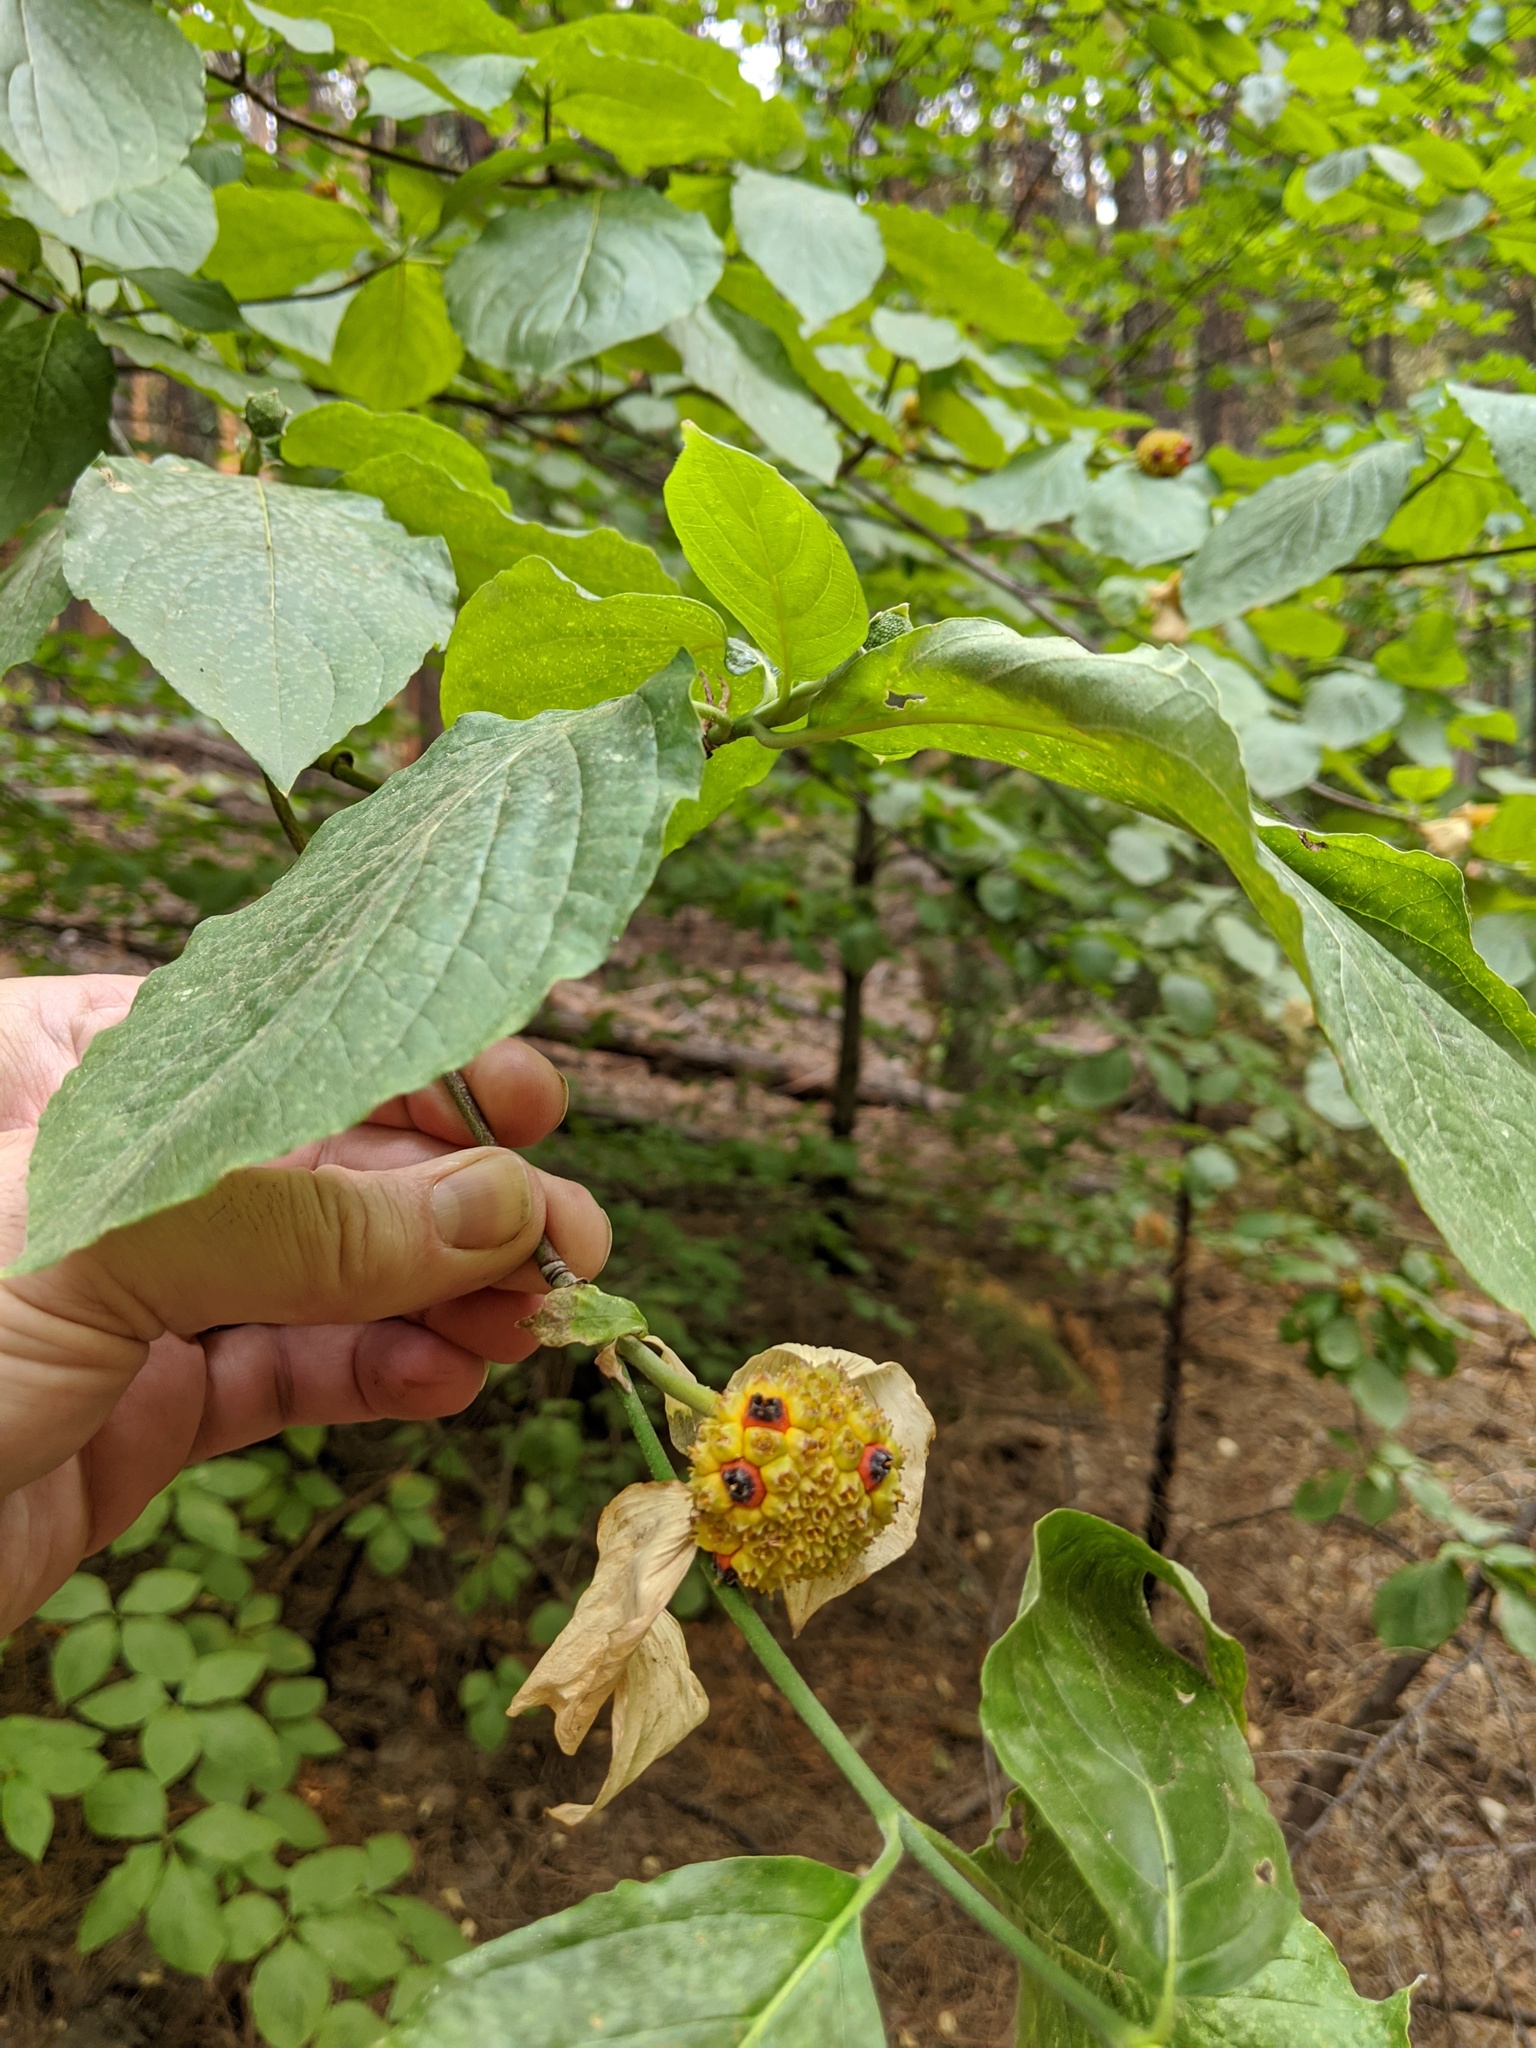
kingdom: Plantae
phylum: Tracheophyta
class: Magnoliopsida
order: Cornales
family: Cornaceae
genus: Cornus
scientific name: Cornus nuttallii
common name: Pacific dogwood
